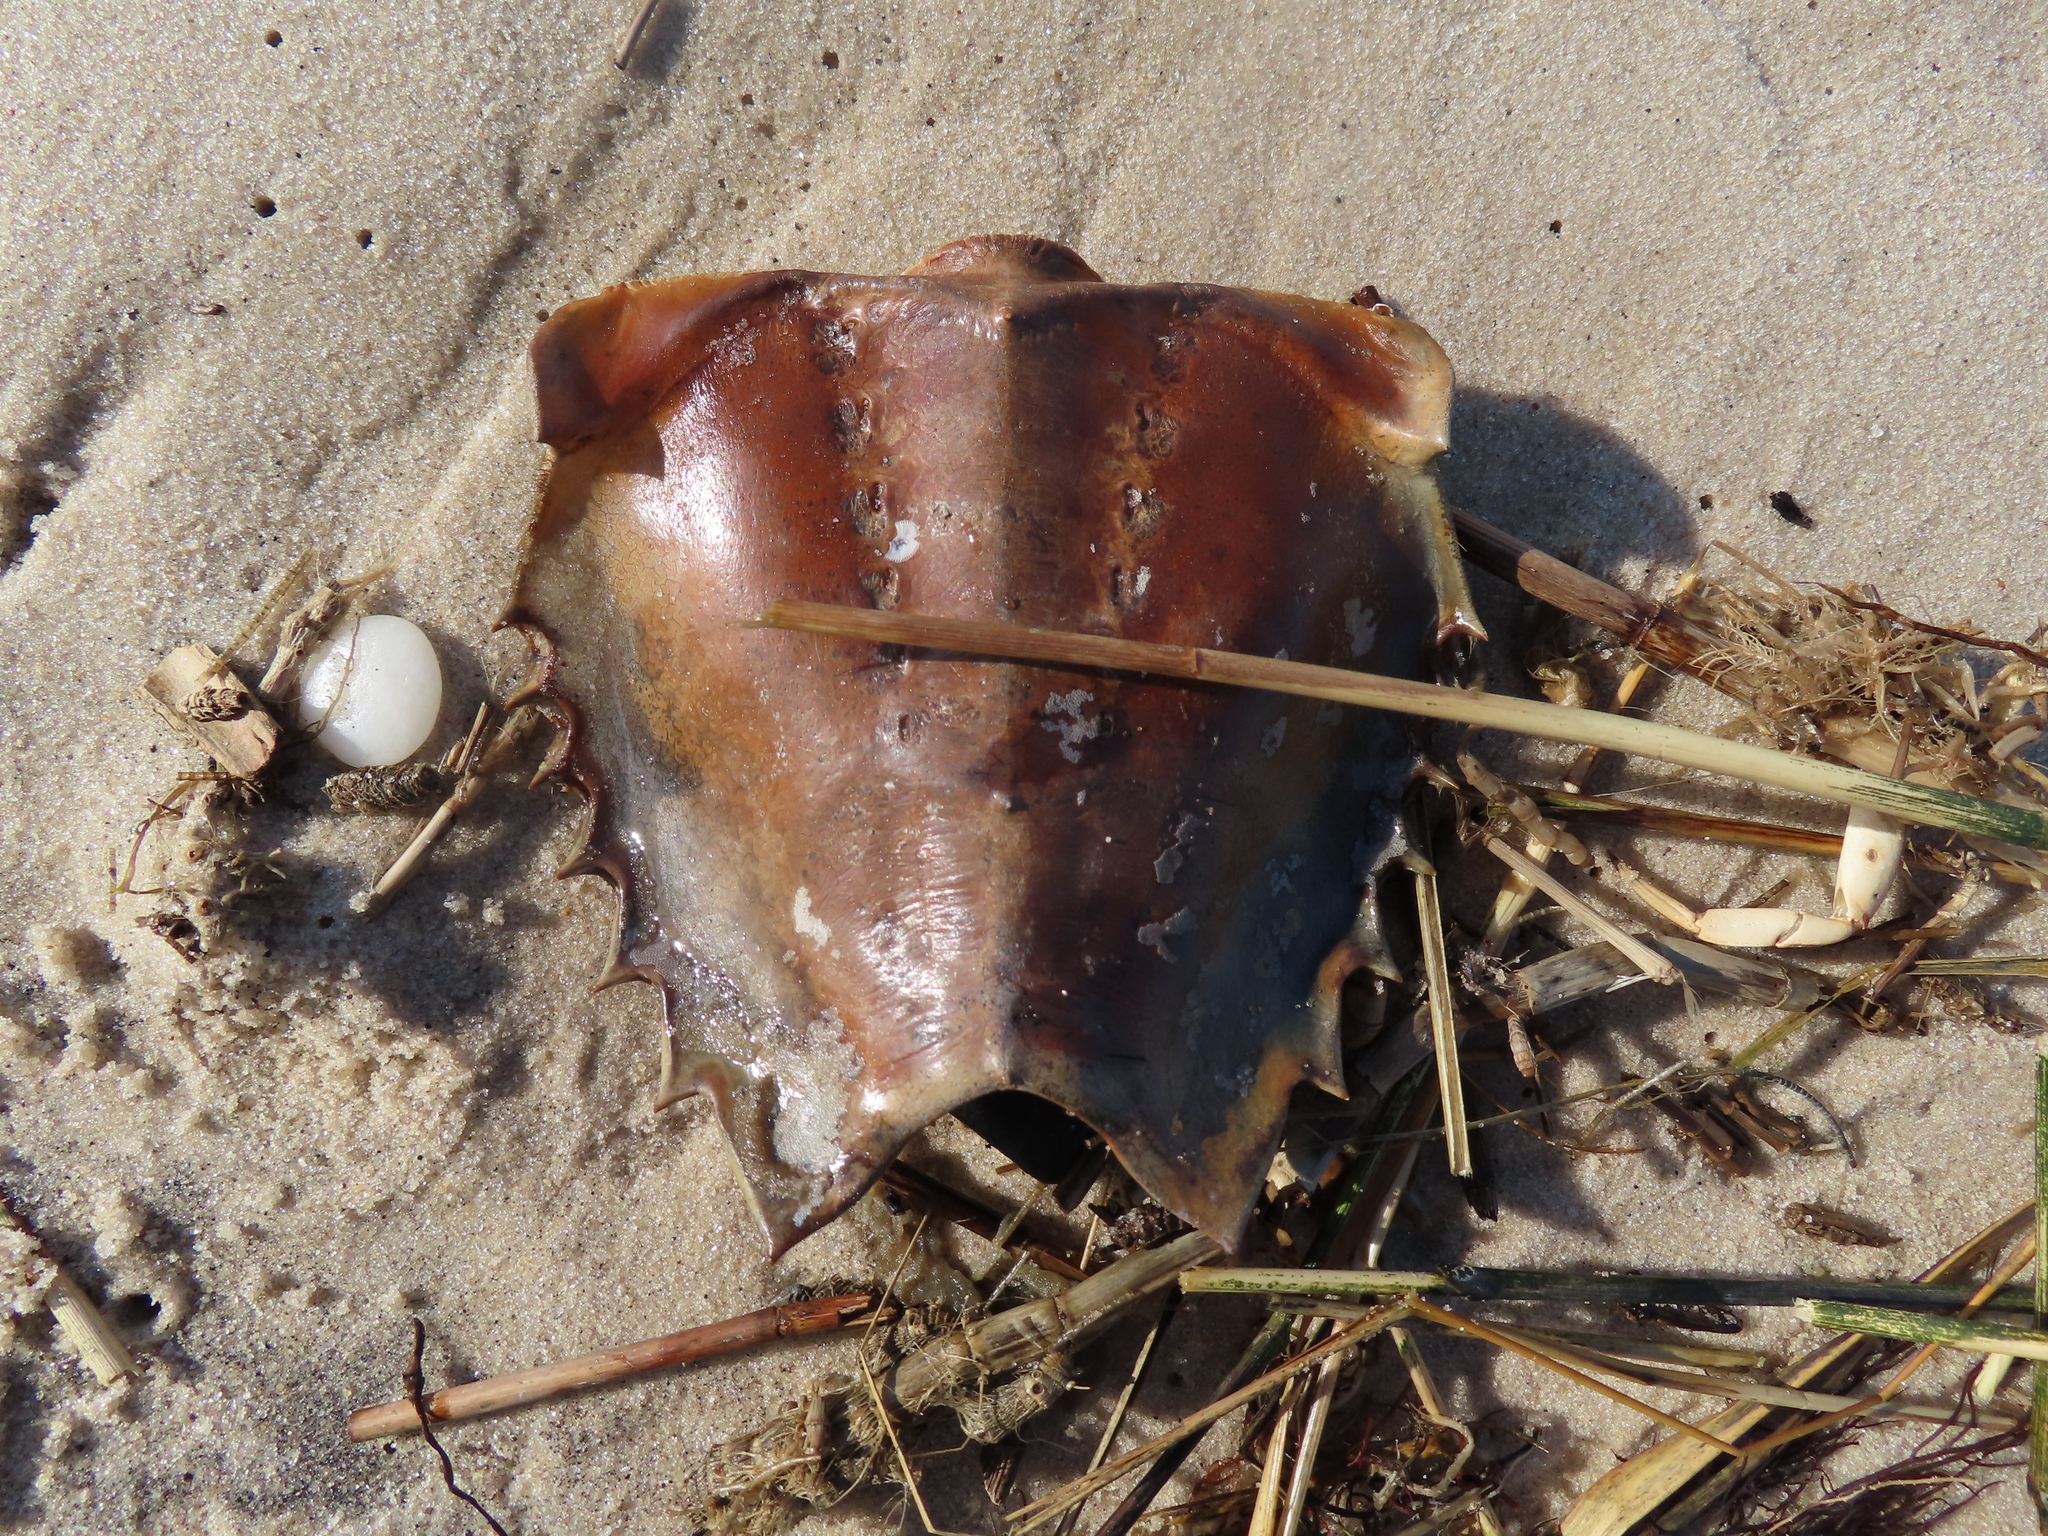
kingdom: Animalia
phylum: Arthropoda
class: Merostomata
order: Xiphosurida
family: Limulidae
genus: Limulus
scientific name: Limulus polyphemus
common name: Horseshoe crab
